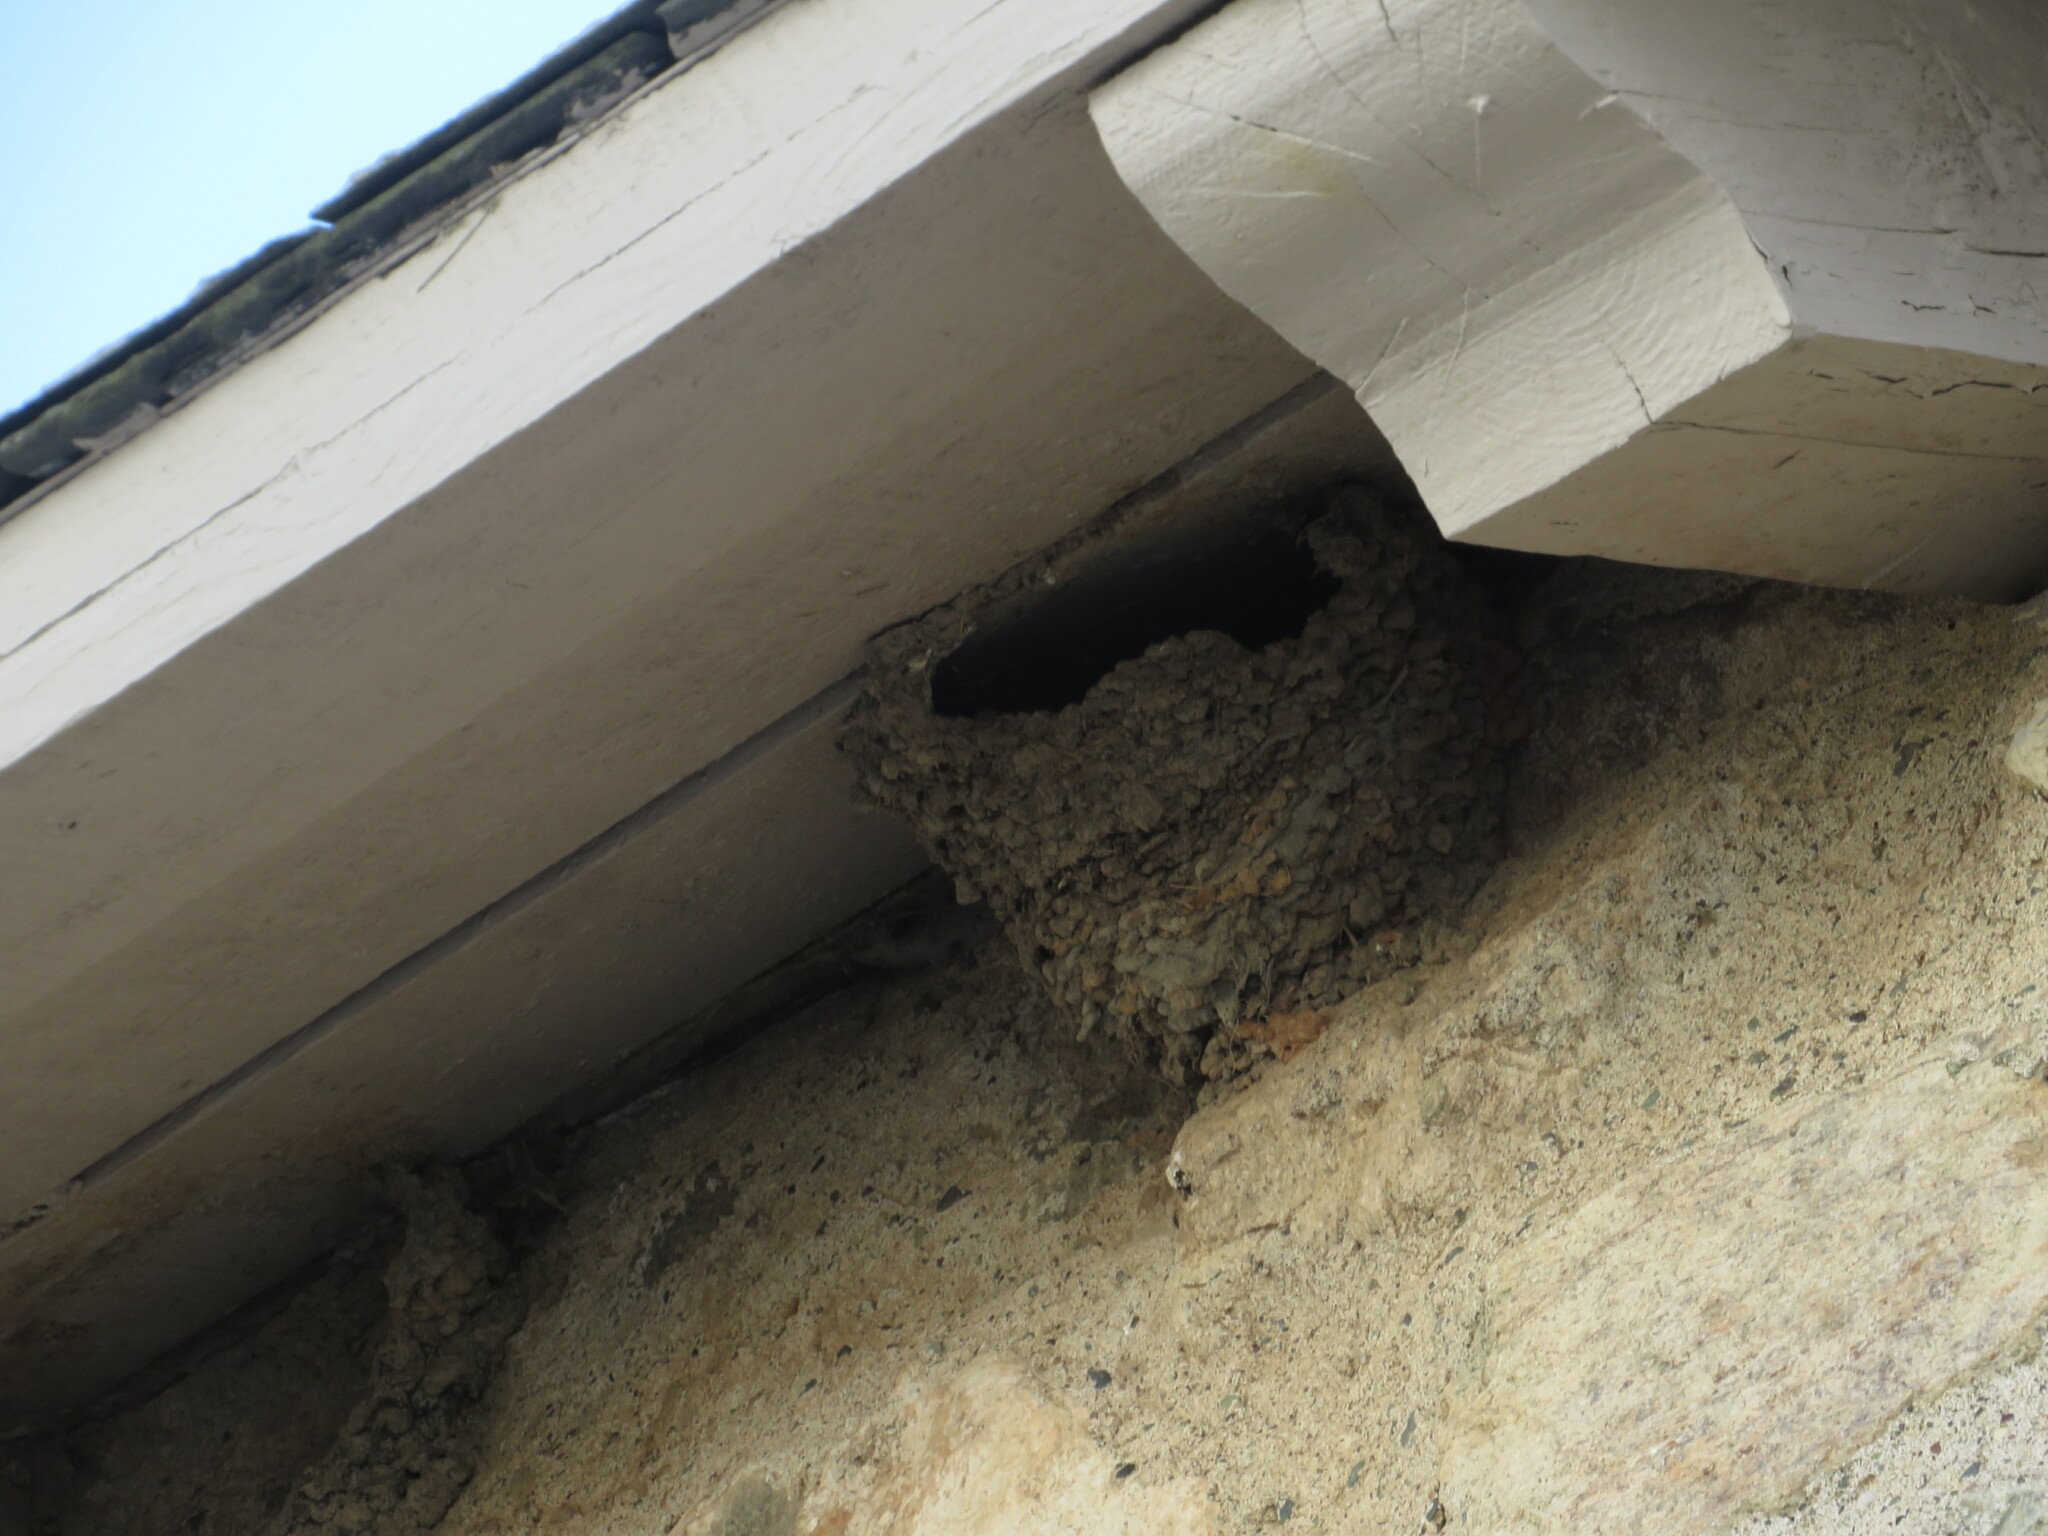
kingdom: Animalia
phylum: Chordata
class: Aves
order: Passeriformes
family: Hirundinidae
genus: Petrochelidon
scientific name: Petrochelidon pyrrhonota
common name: American cliff swallow
